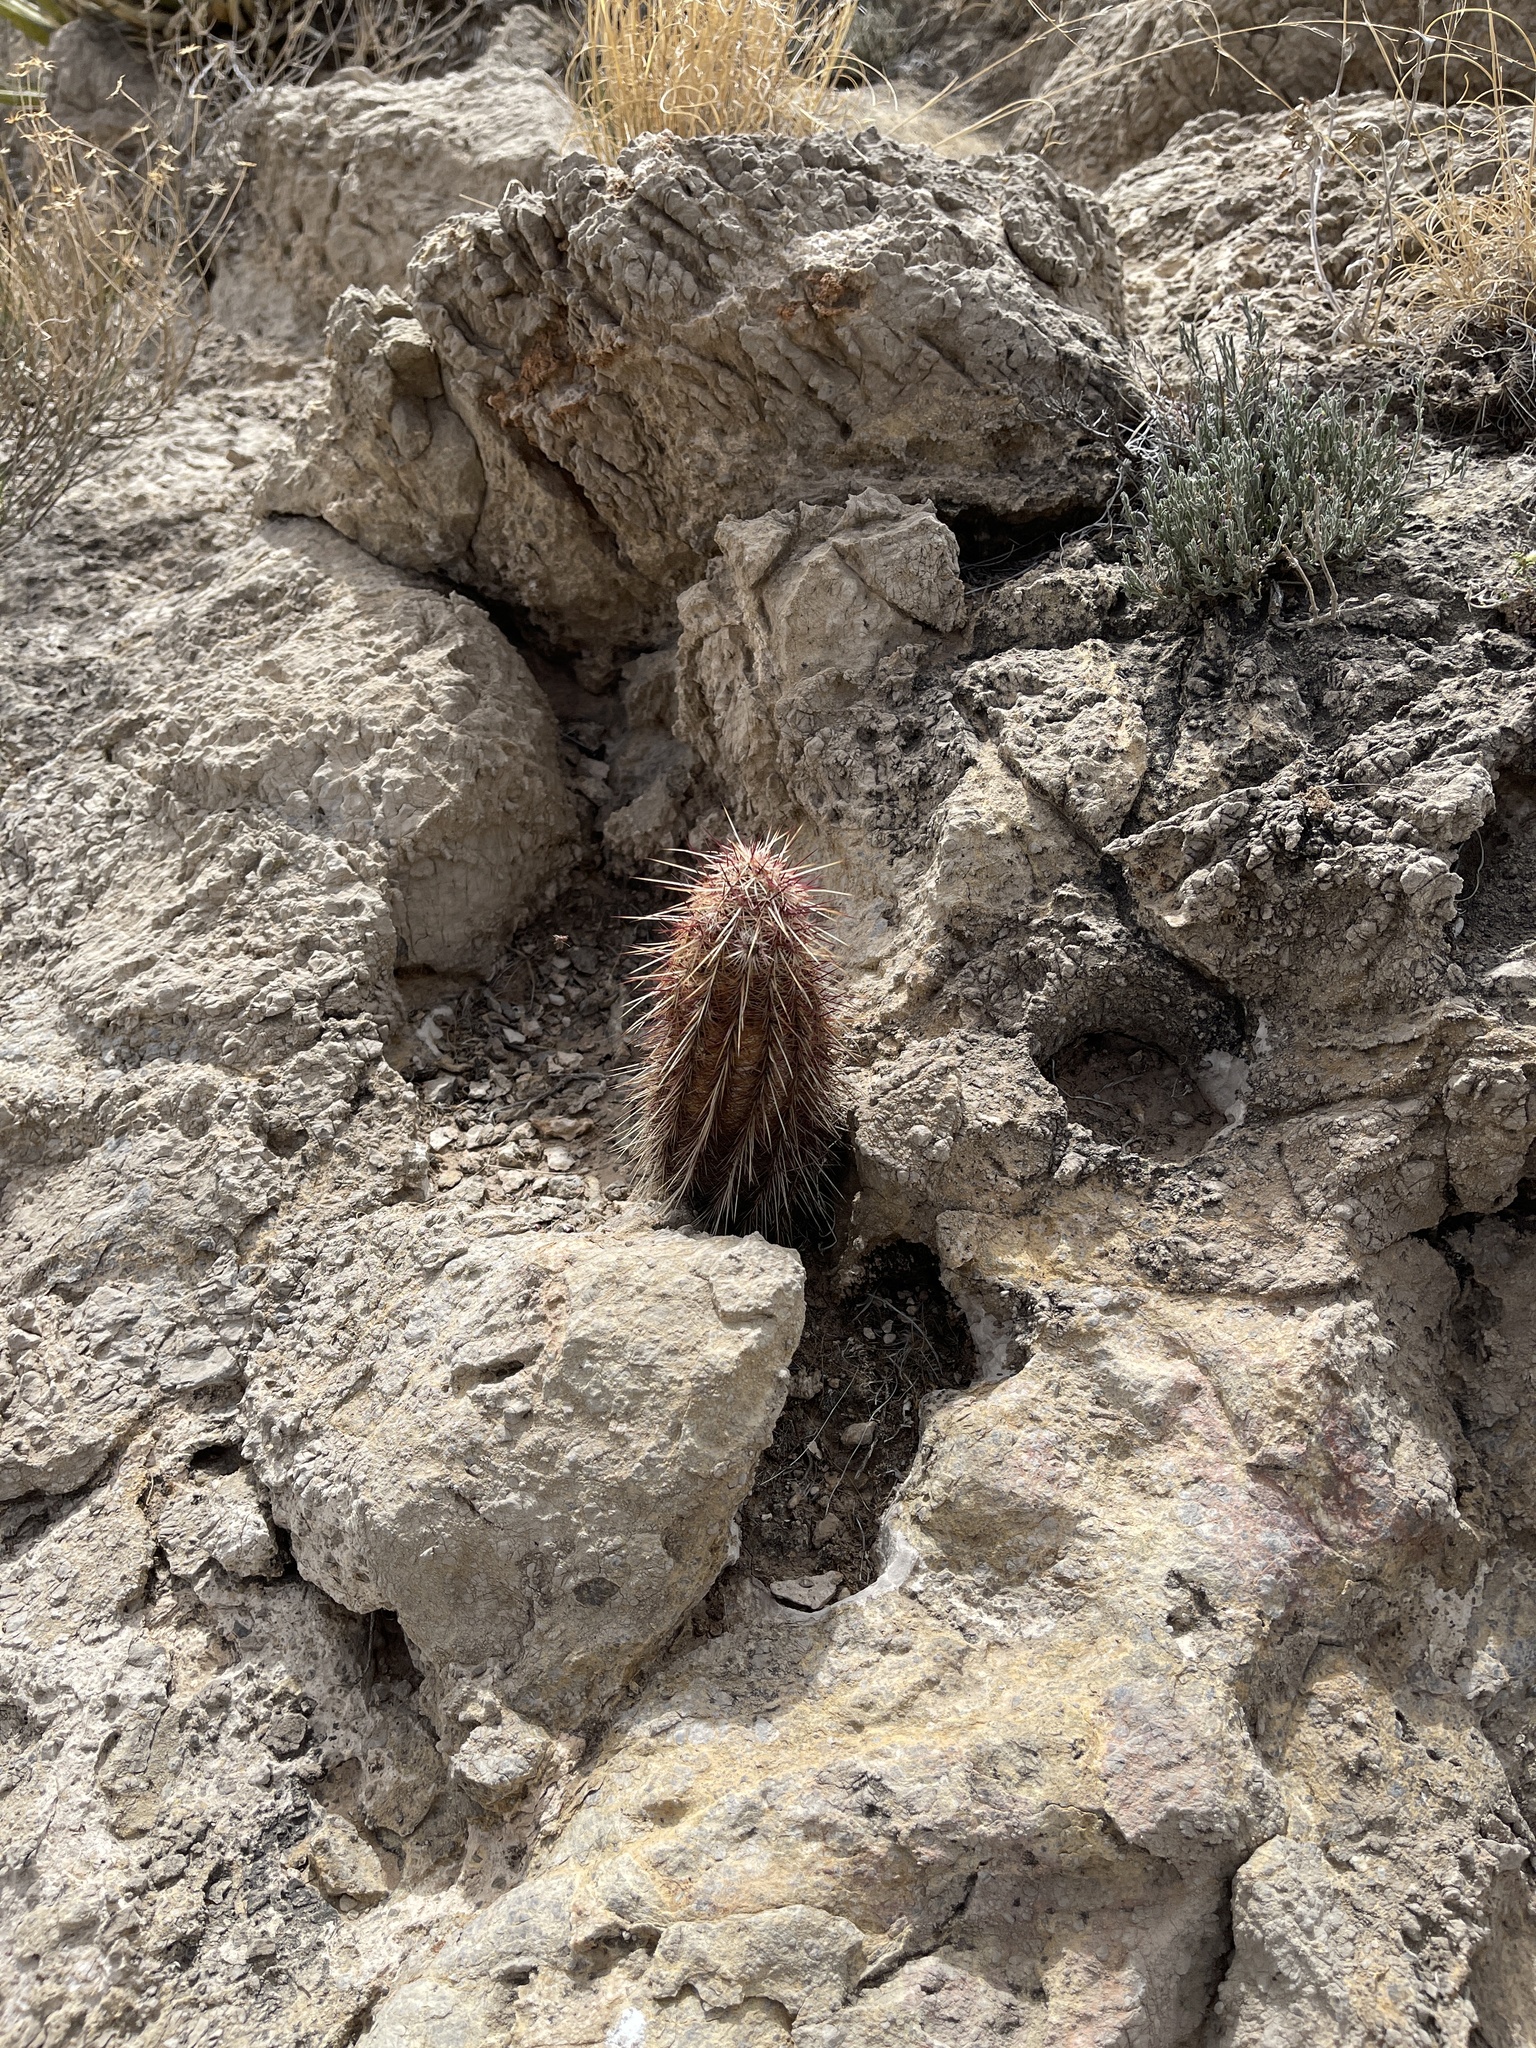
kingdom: Plantae
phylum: Tracheophyta
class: Magnoliopsida
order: Caryophyllales
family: Cactaceae
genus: Echinocereus
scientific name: Echinocereus viridiflorus
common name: Nylon hedgehog cactus
